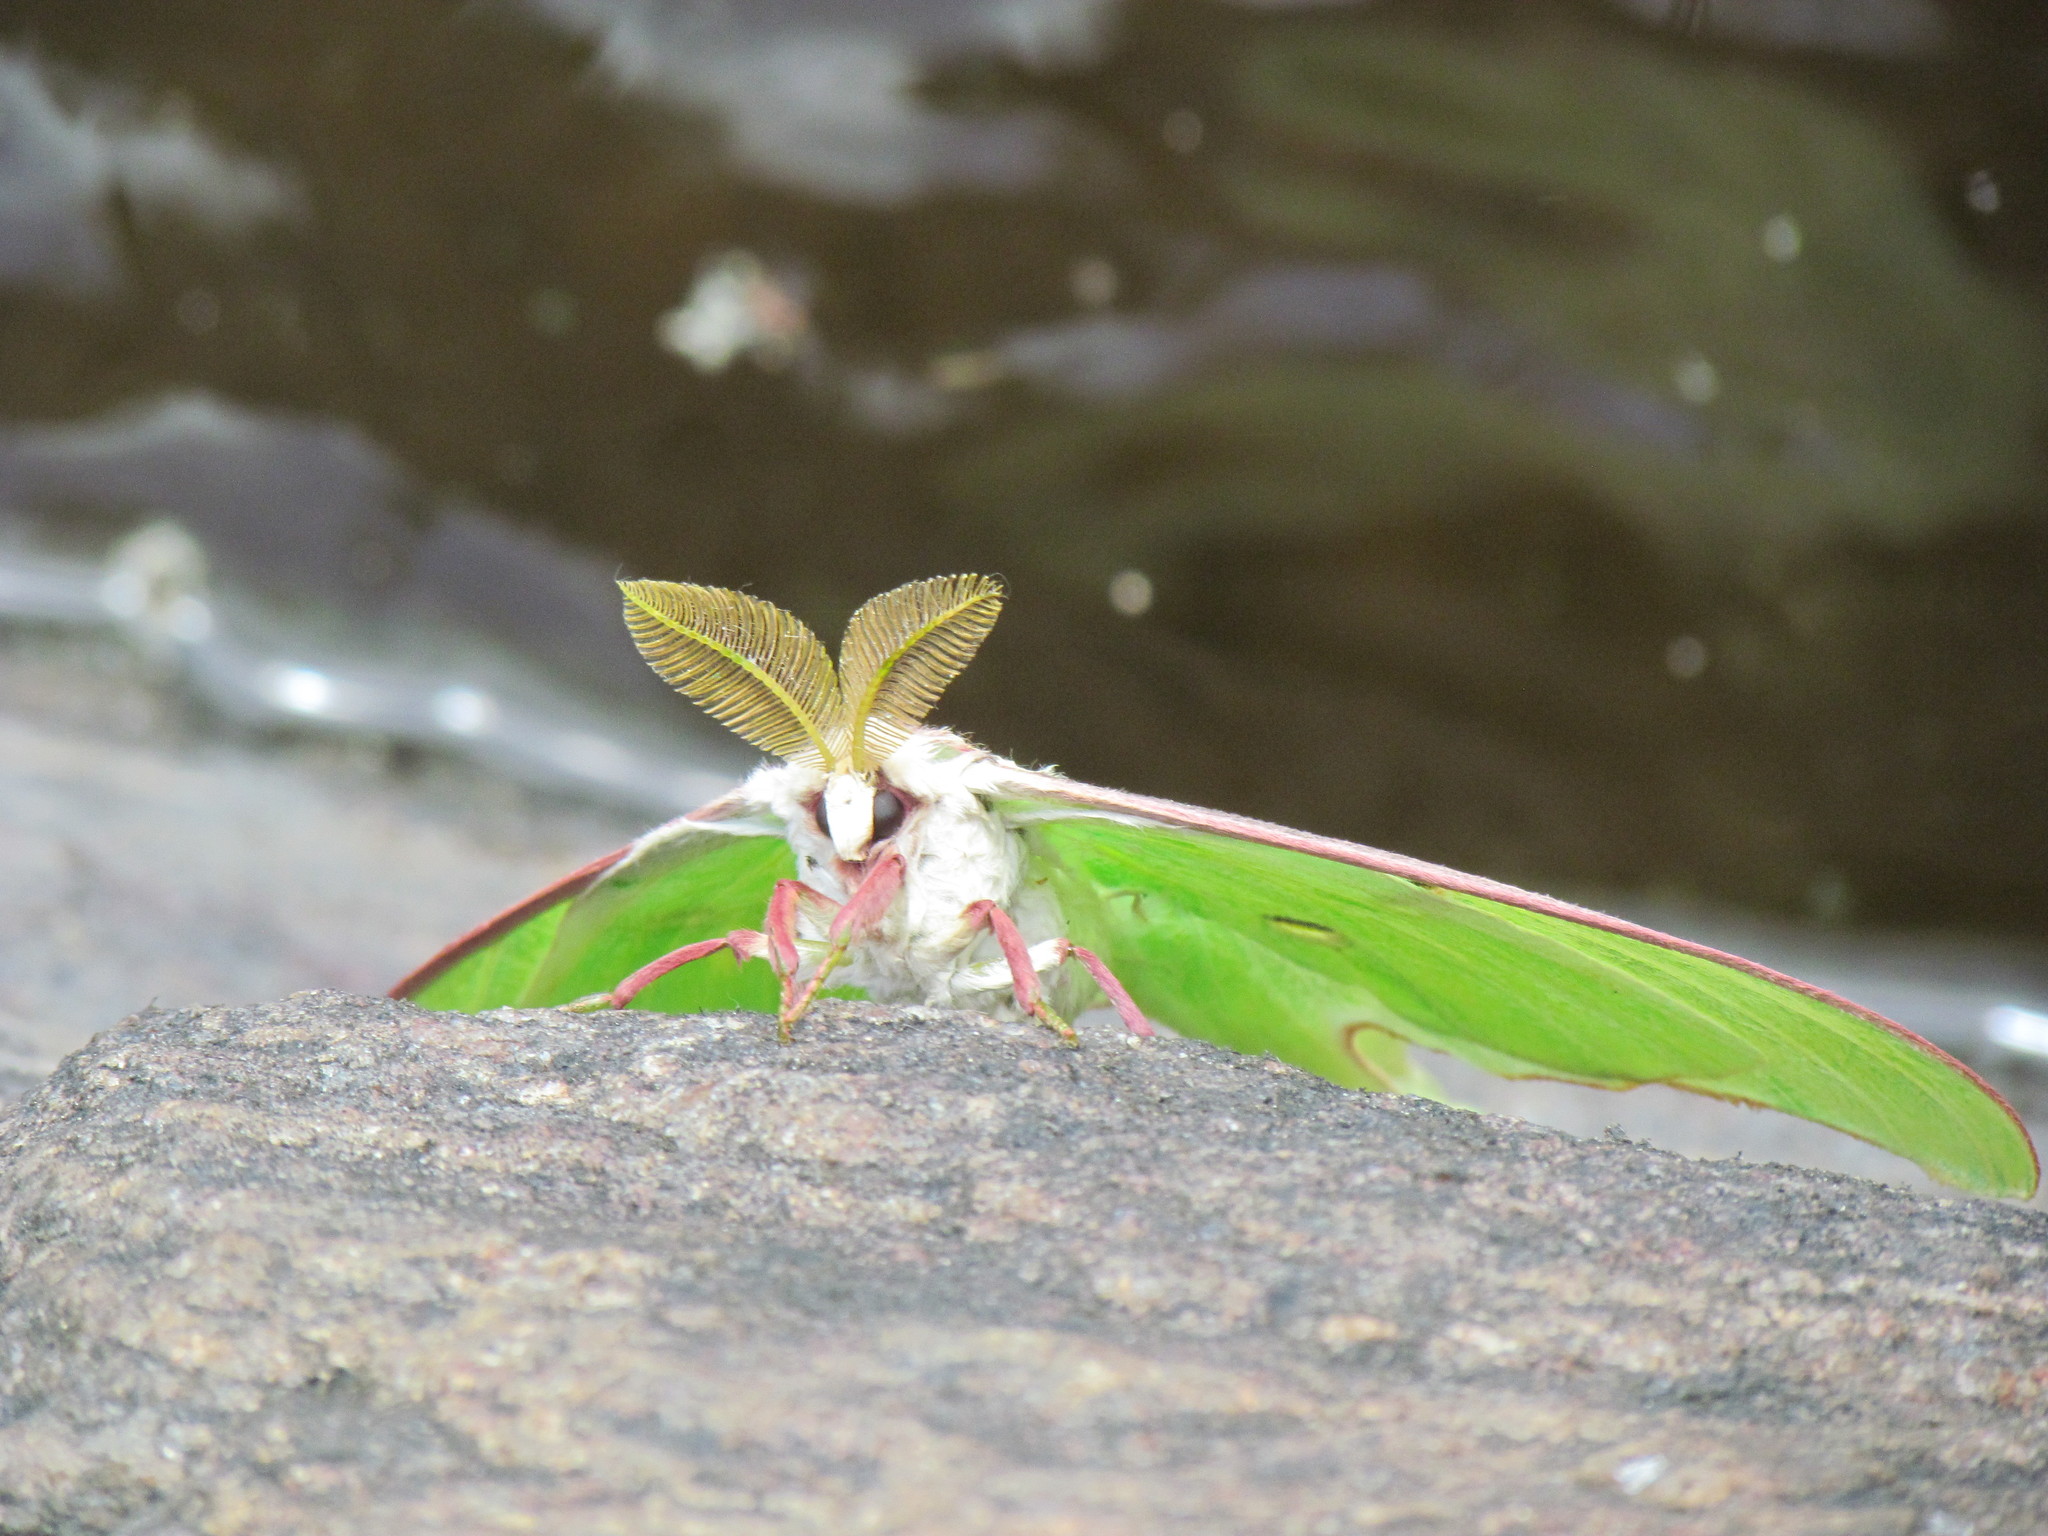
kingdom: Animalia
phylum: Arthropoda
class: Insecta
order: Lepidoptera
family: Saturniidae
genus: Actias
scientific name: Actias luna
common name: Luna moth
